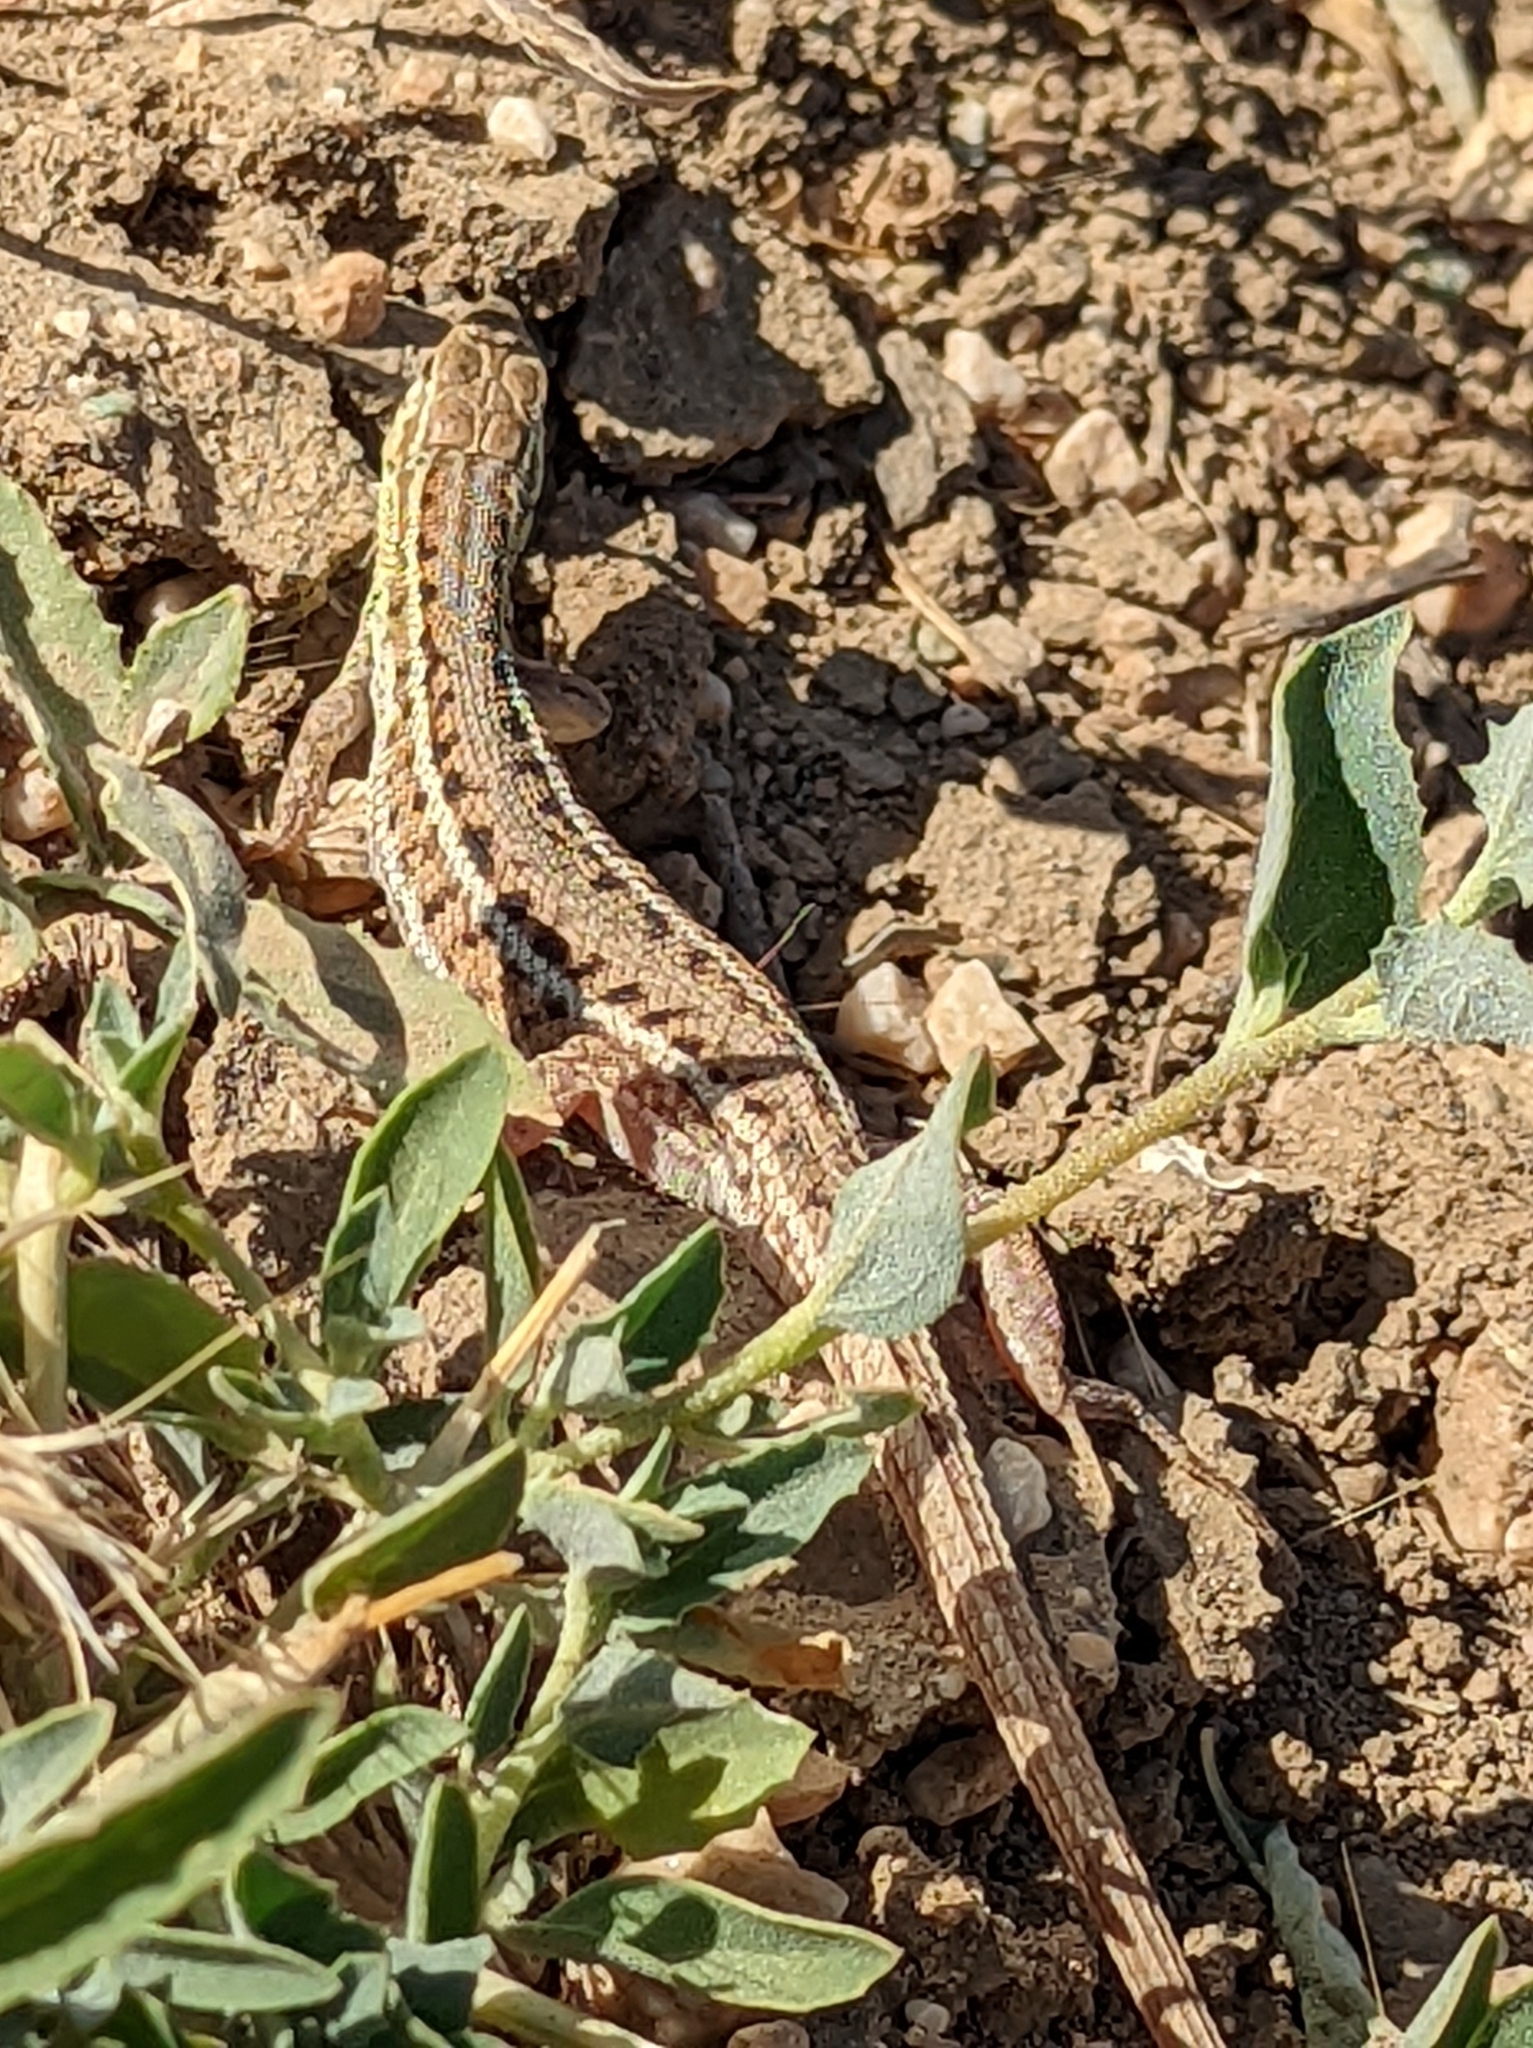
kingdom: Animalia
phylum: Chordata
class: Squamata
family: Lacertidae
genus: Ophisops
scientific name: Ophisops elegans
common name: Snake-eyed lizard
